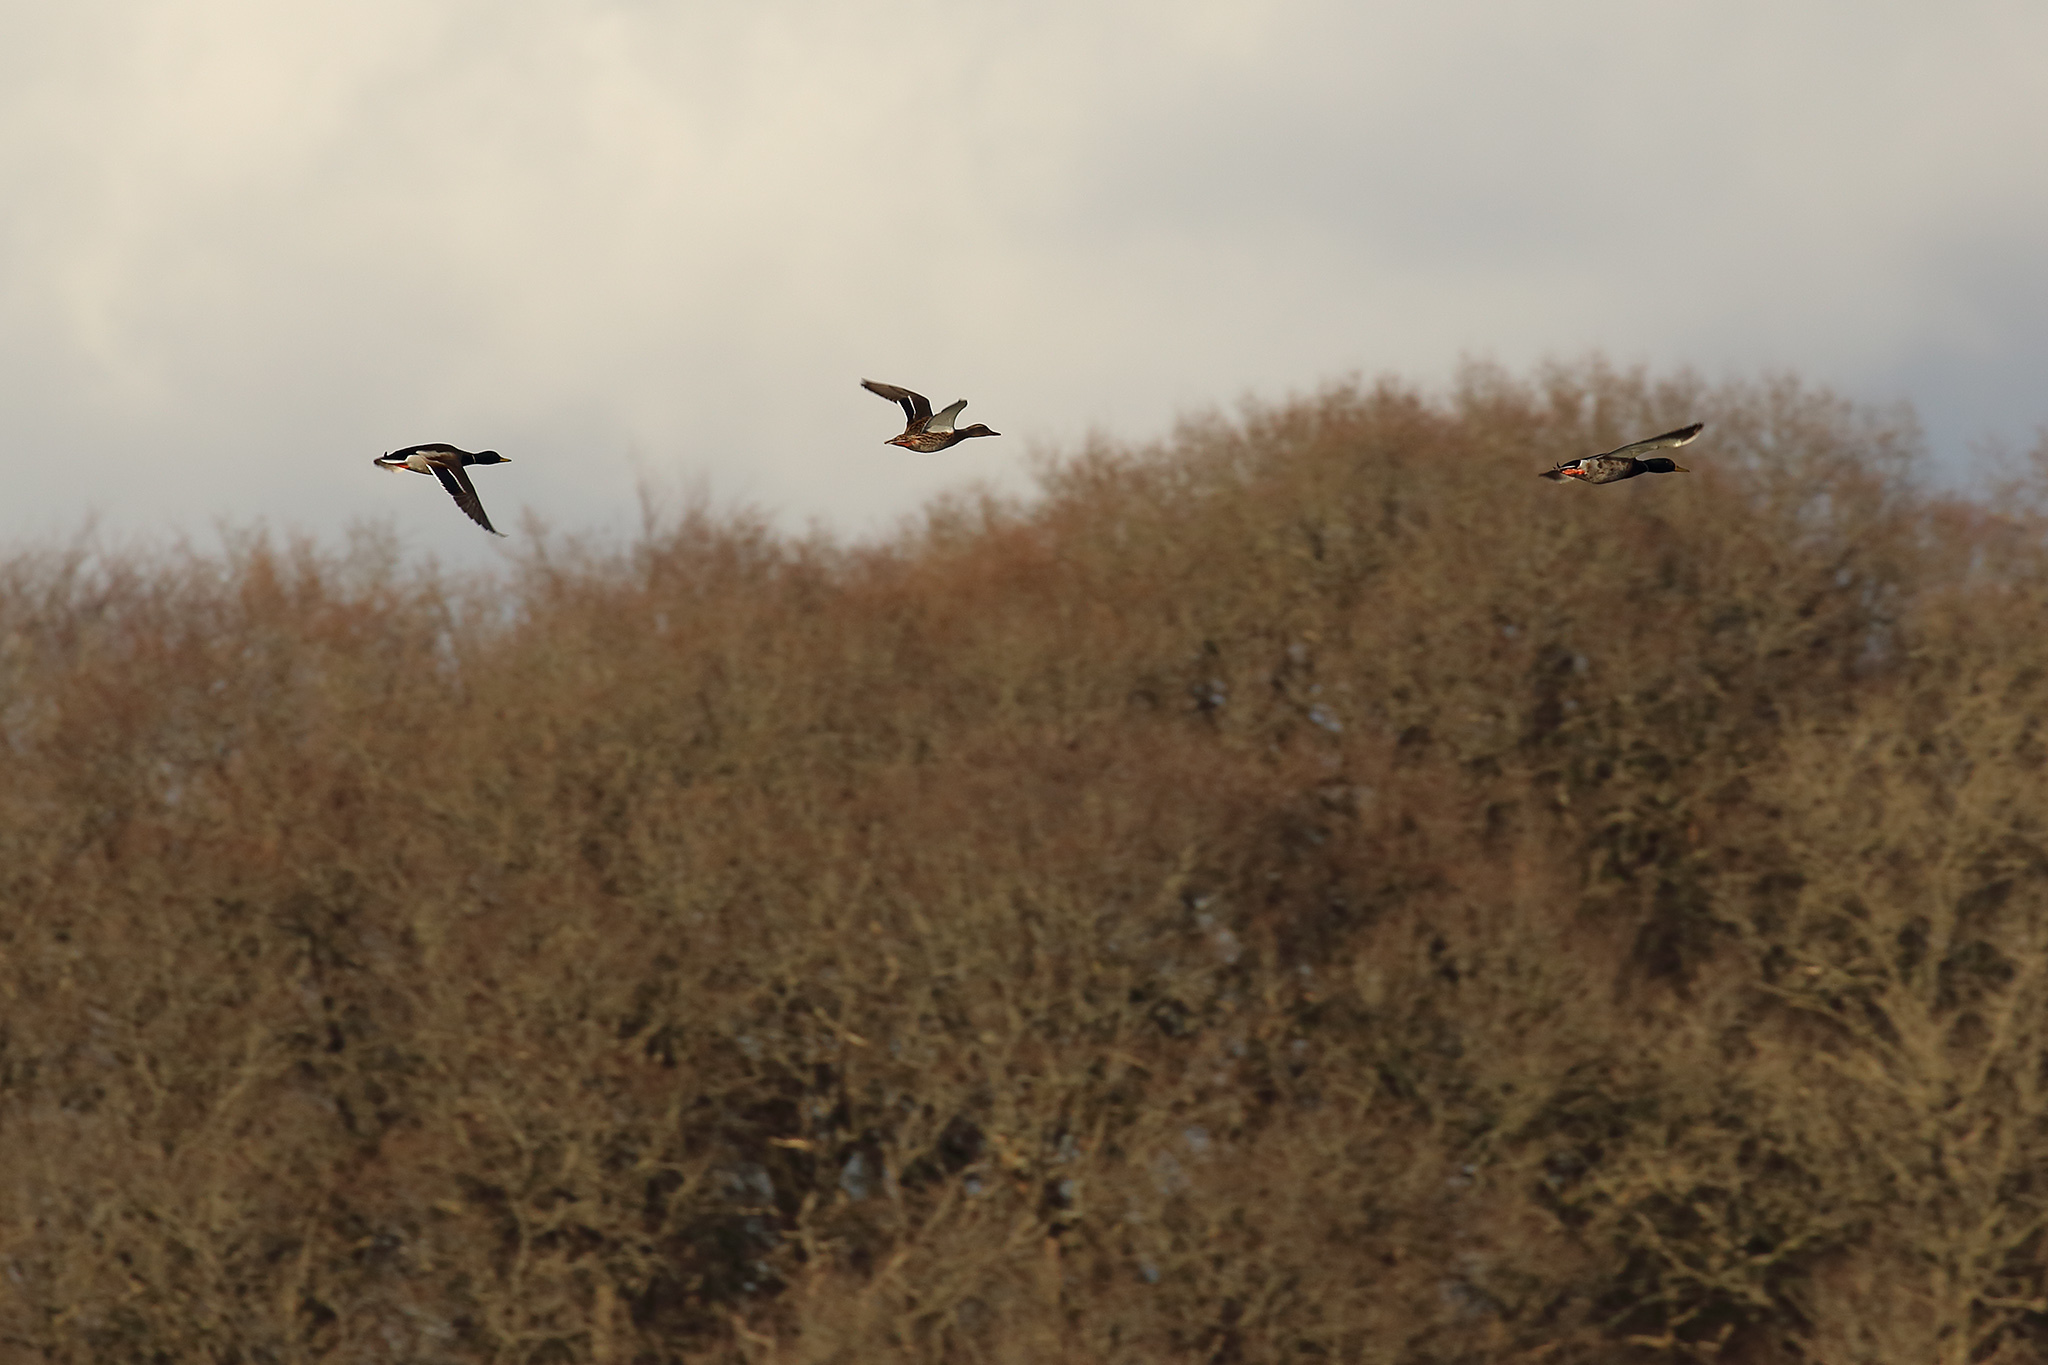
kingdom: Animalia
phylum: Chordata
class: Aves
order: Anseriformes
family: Anatidae
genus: Anas
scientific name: Anas platyrhynchos
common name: Mallard
